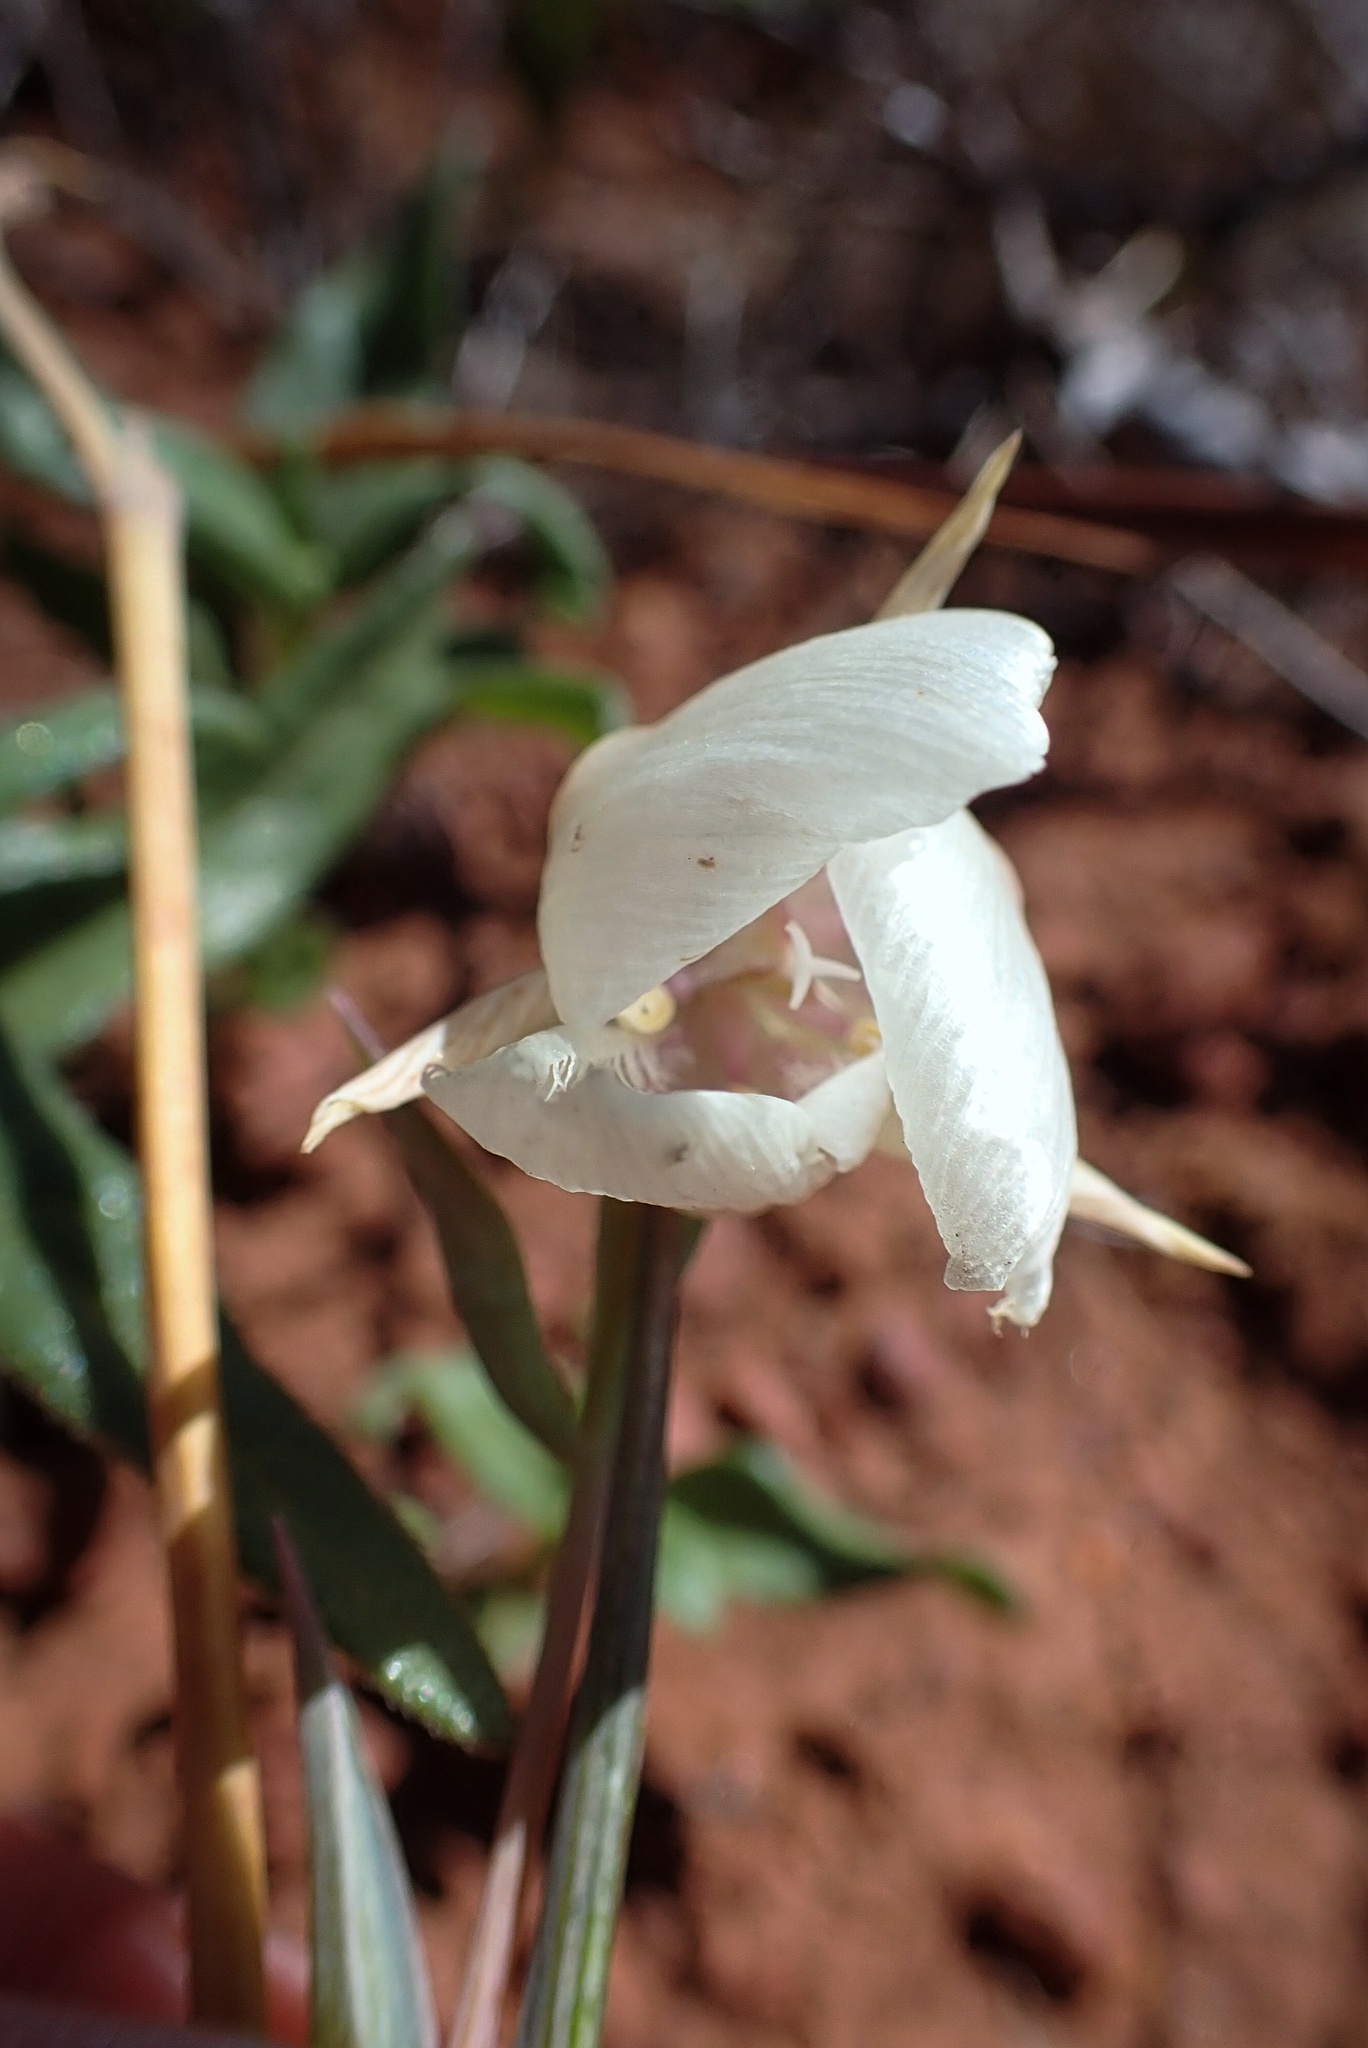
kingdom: Plantae
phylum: Tracheophyta
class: Liliopsida
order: Liliales
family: Liliaceae
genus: Calochortus
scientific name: Calochortus albus
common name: Fairy-lantern
